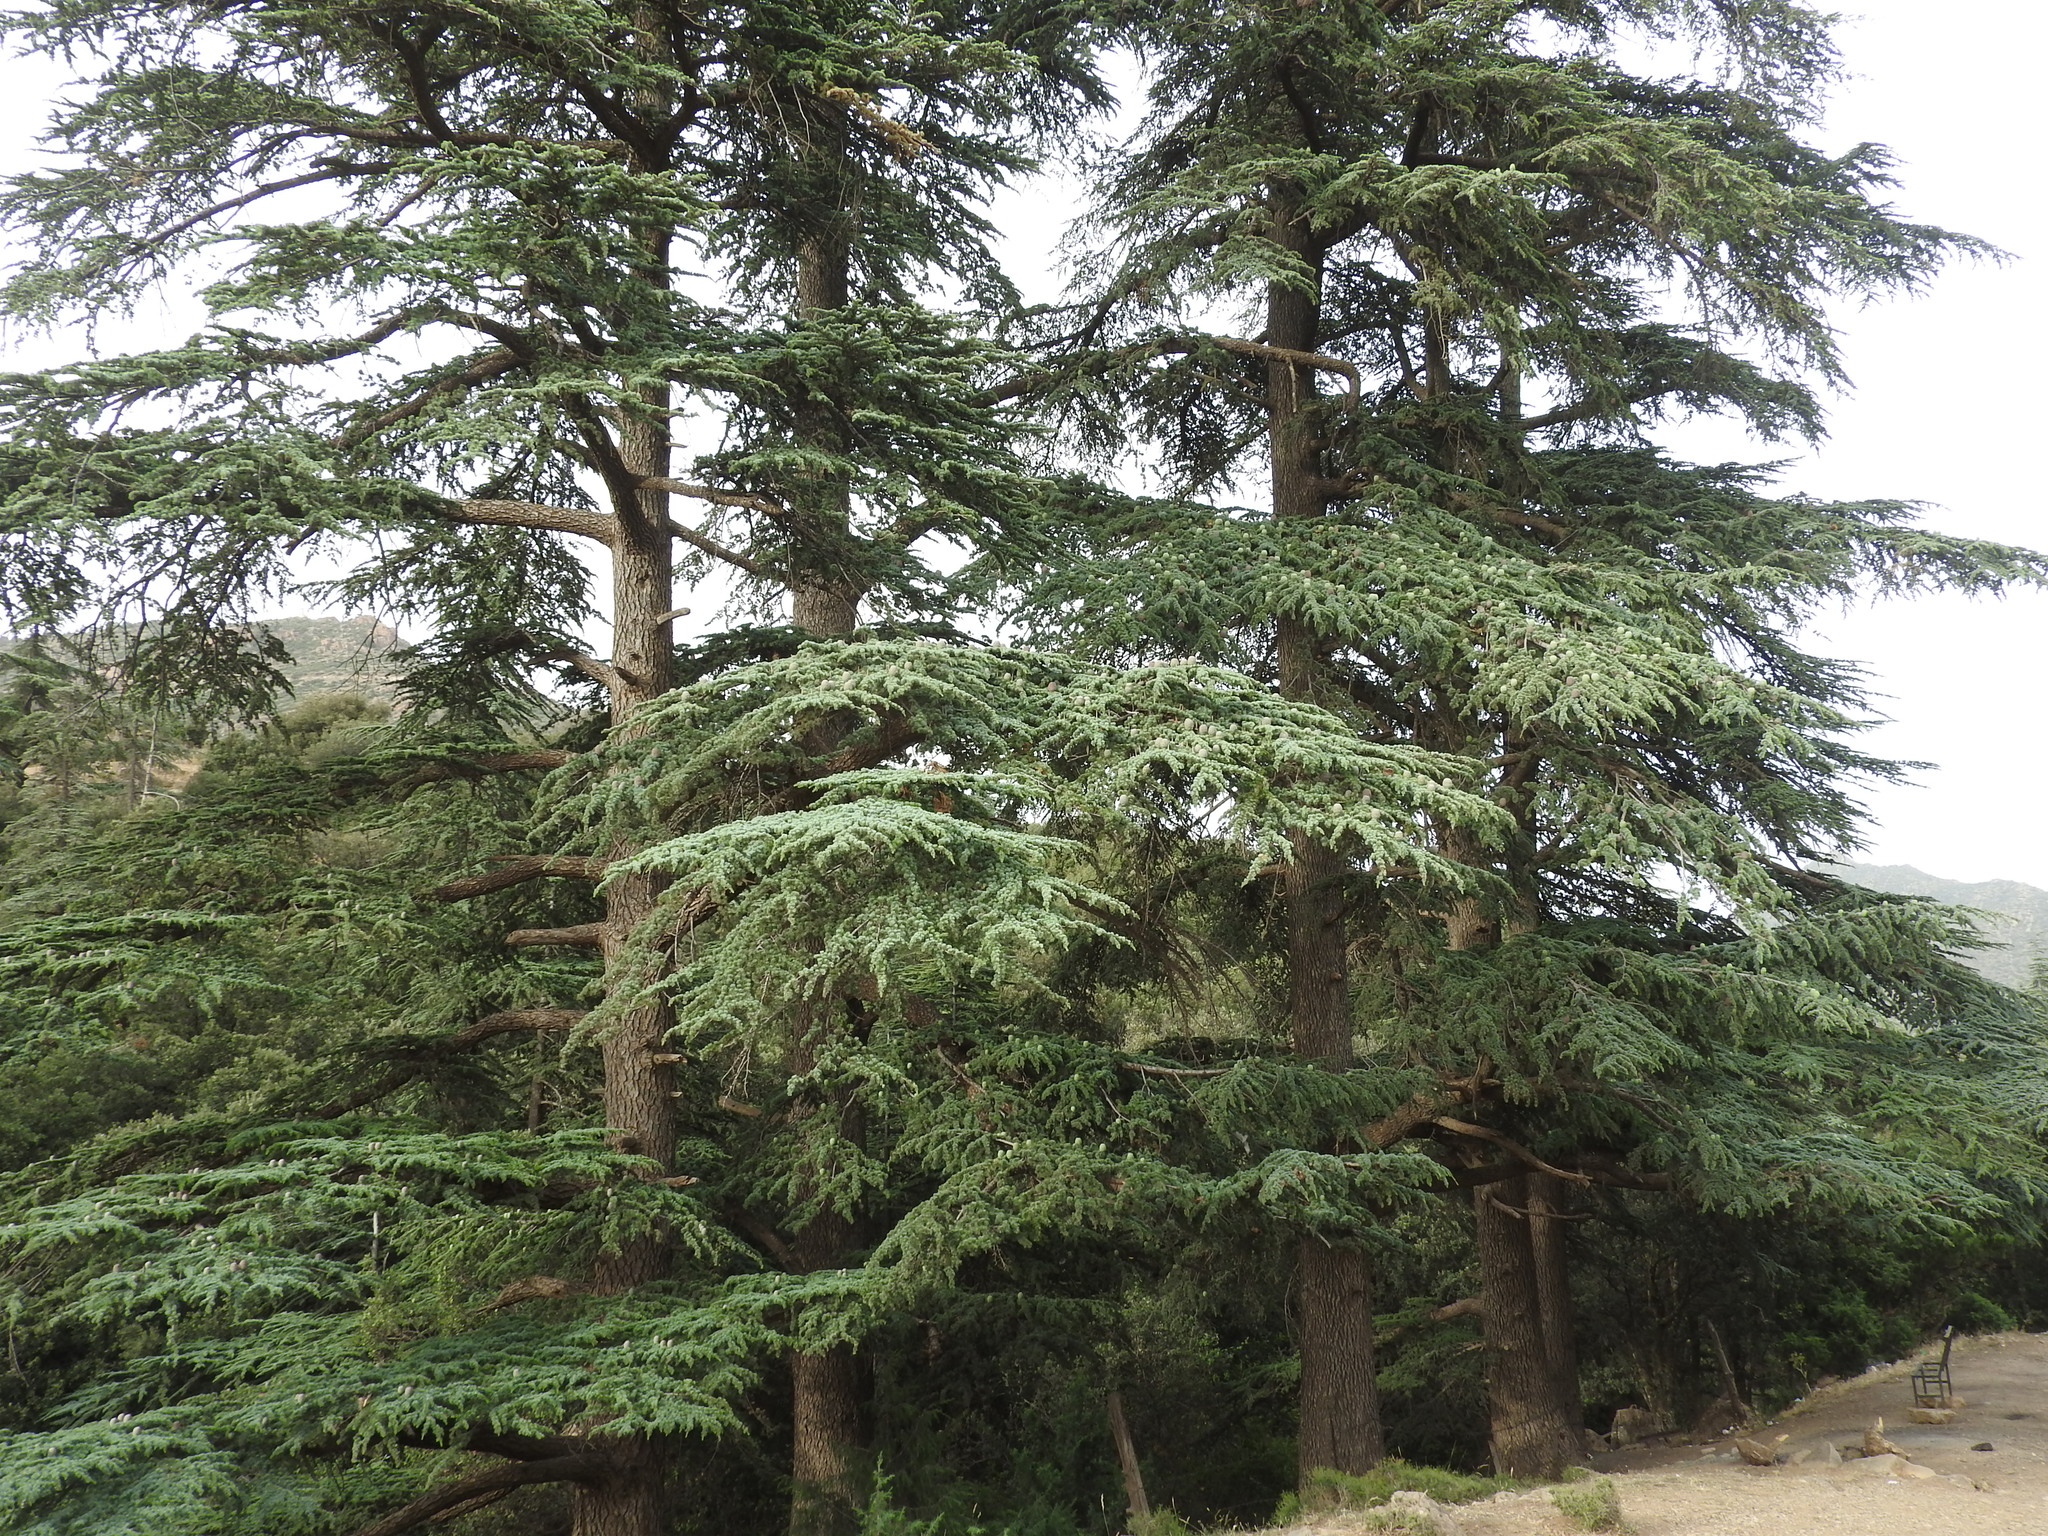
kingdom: Plantae
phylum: Tracheophyta
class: Pinopsida
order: Pinales
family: Pinaceae
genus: Cedrus
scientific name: Cedrus atlantica
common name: Atlas cedar
